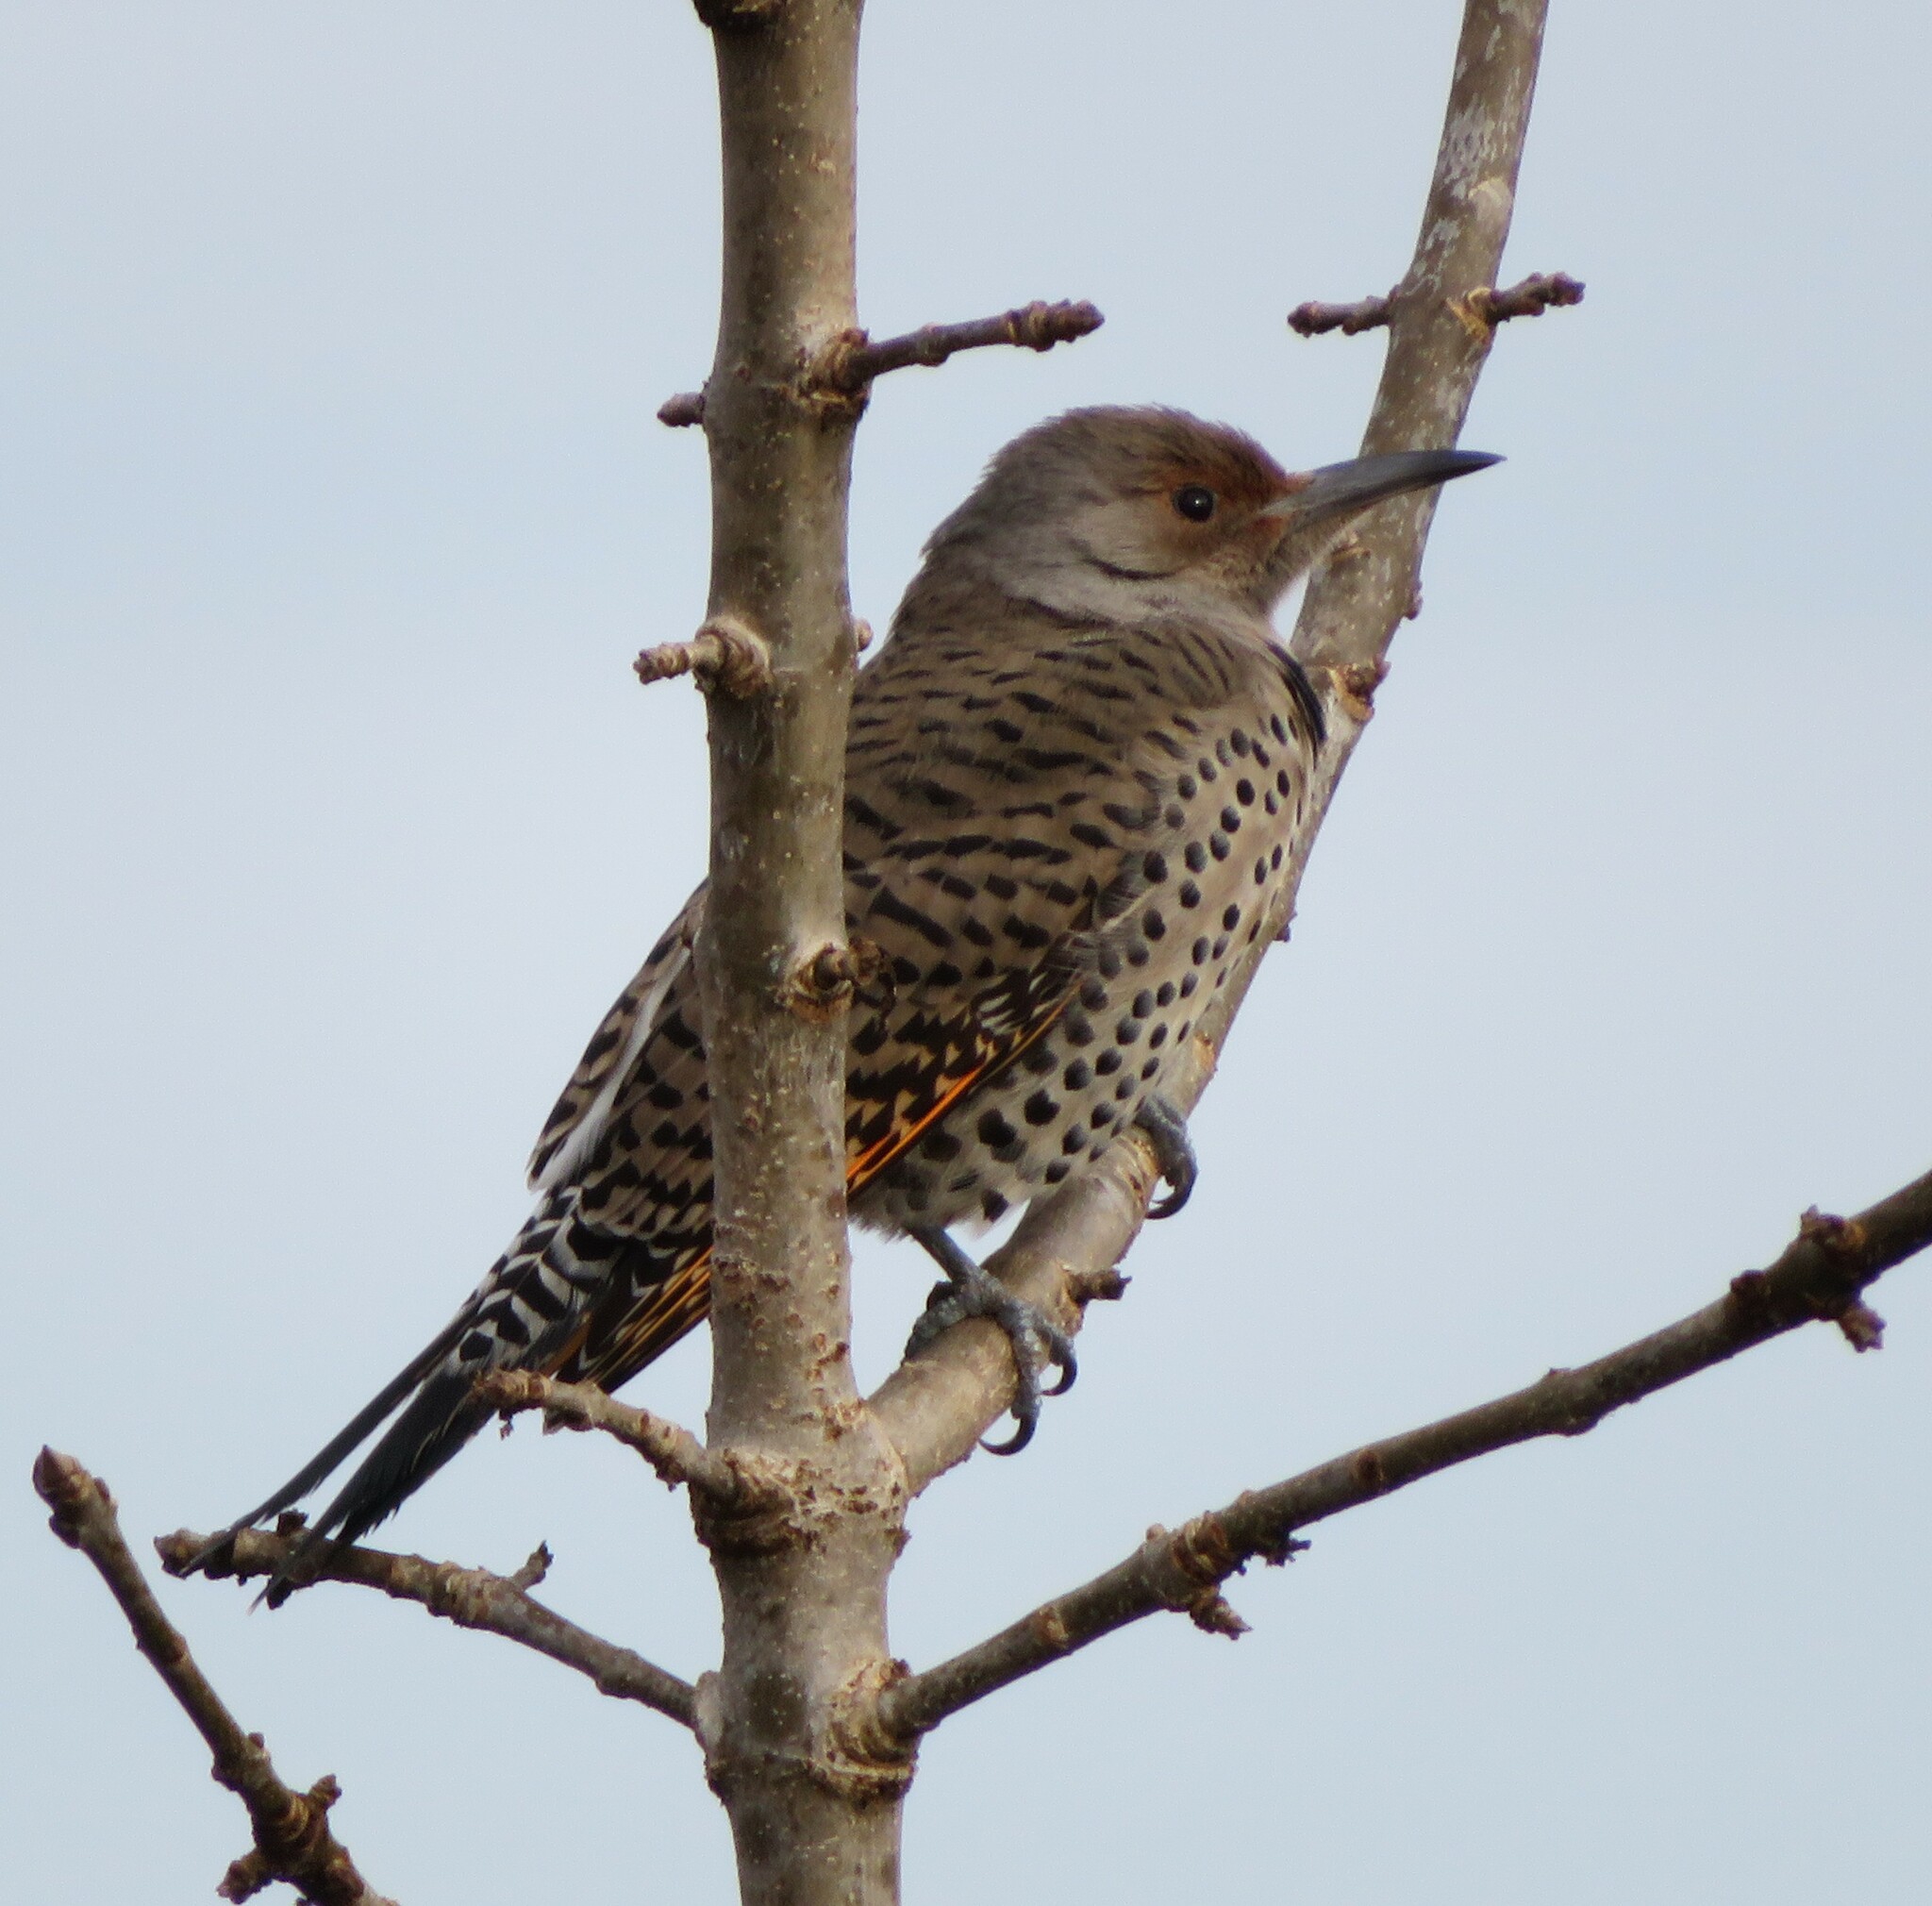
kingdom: Animalia
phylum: Chordata
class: Aves
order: Piciformes
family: Picidae
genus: Colaptes
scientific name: Colaptes auratus
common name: Northern flicker
